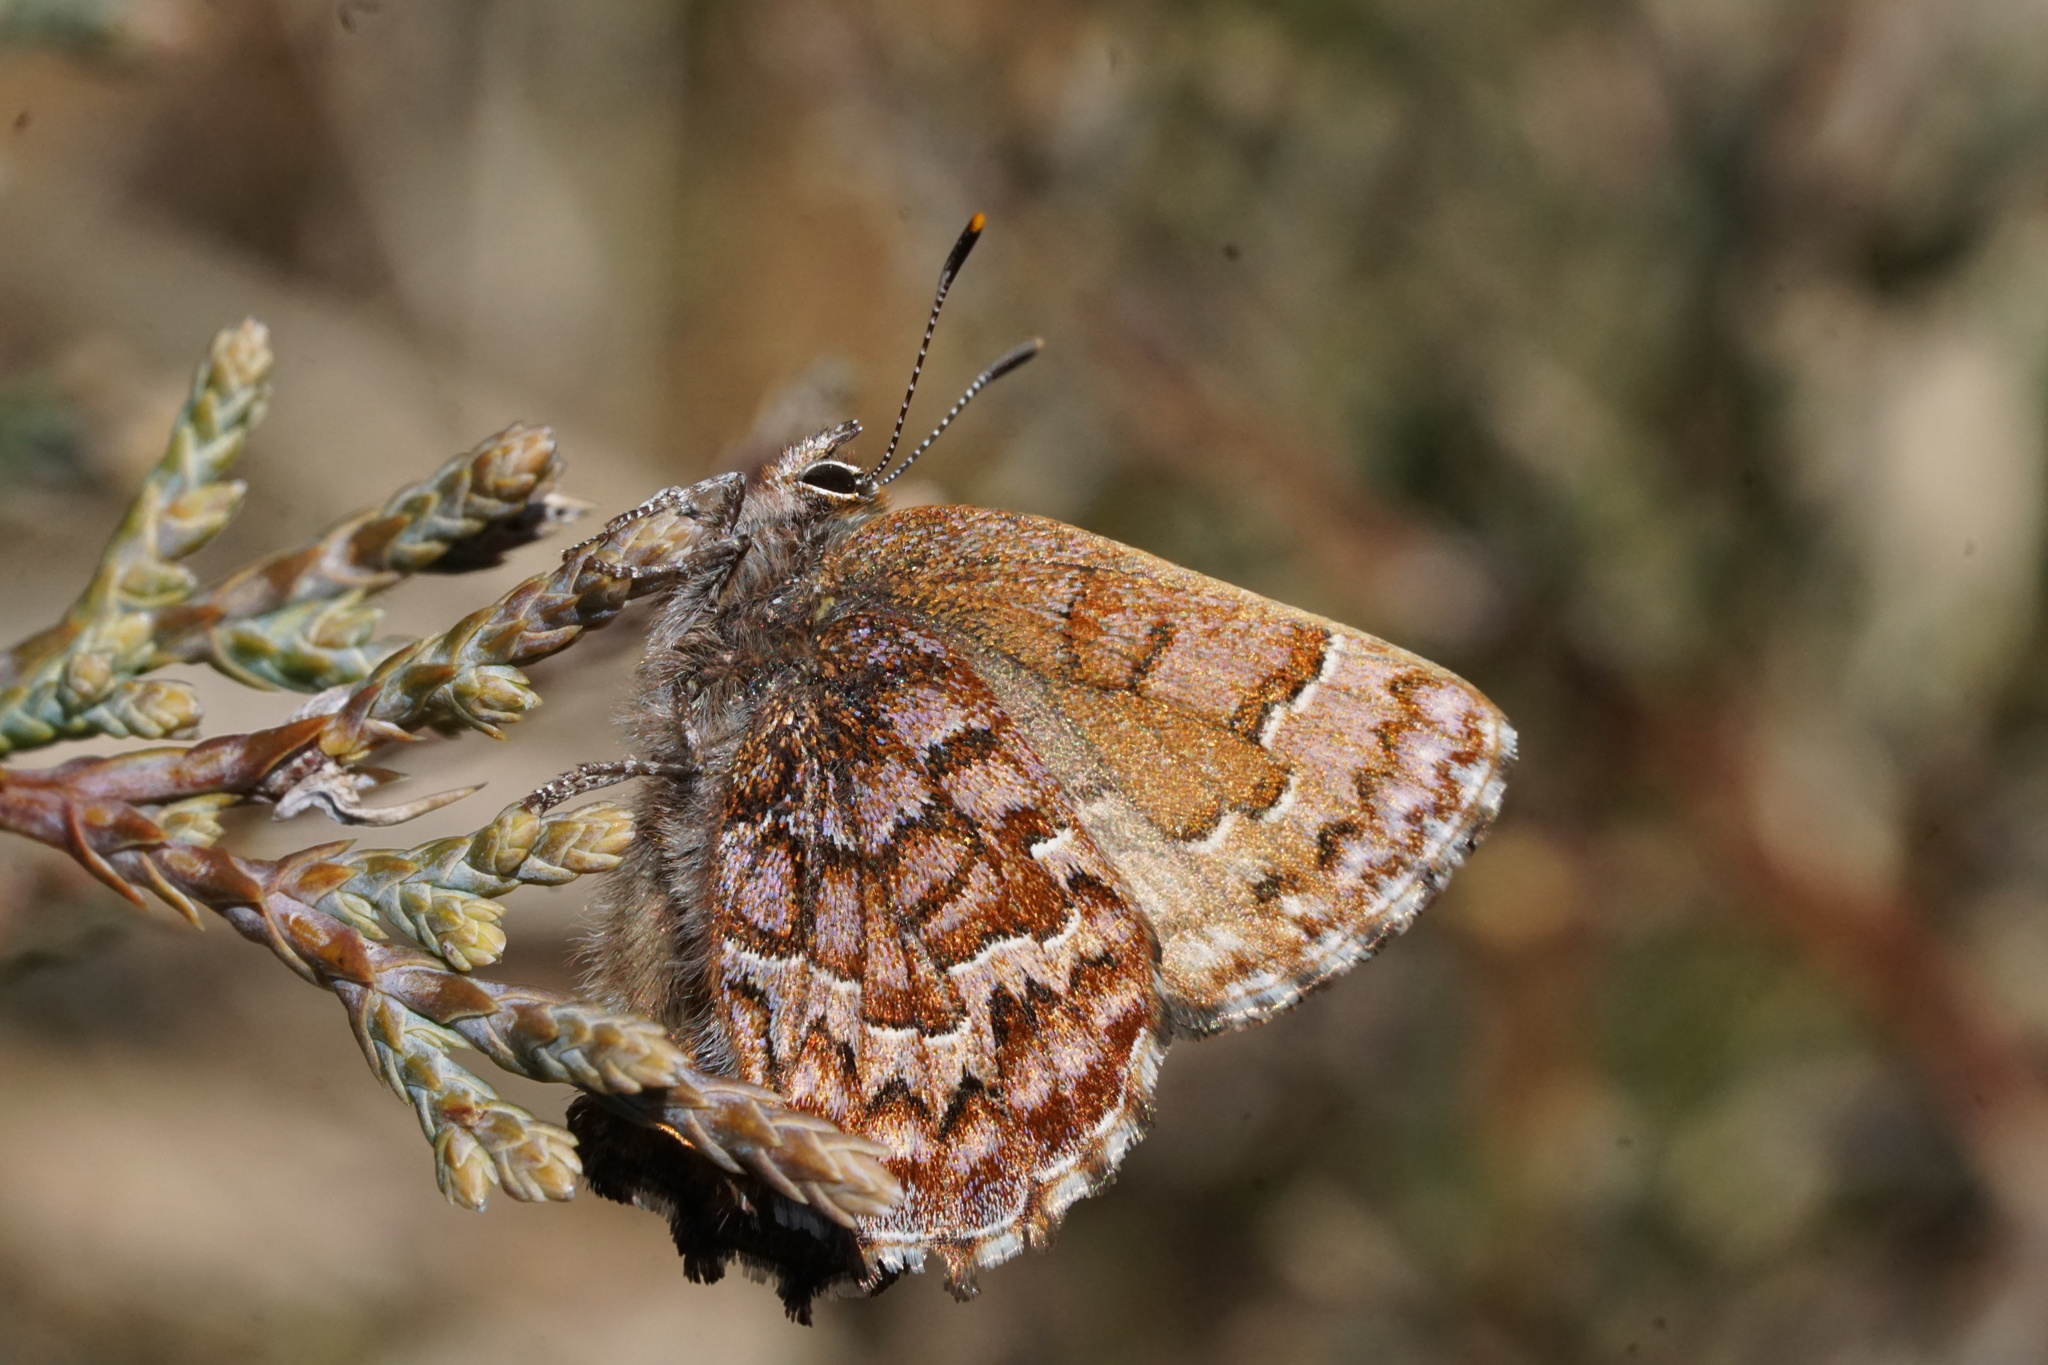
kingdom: Animalia
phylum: Arthropoda
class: Insecta
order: Lepidoptera
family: Lycaenidae
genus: Incisalia
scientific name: Incisalia niphon
